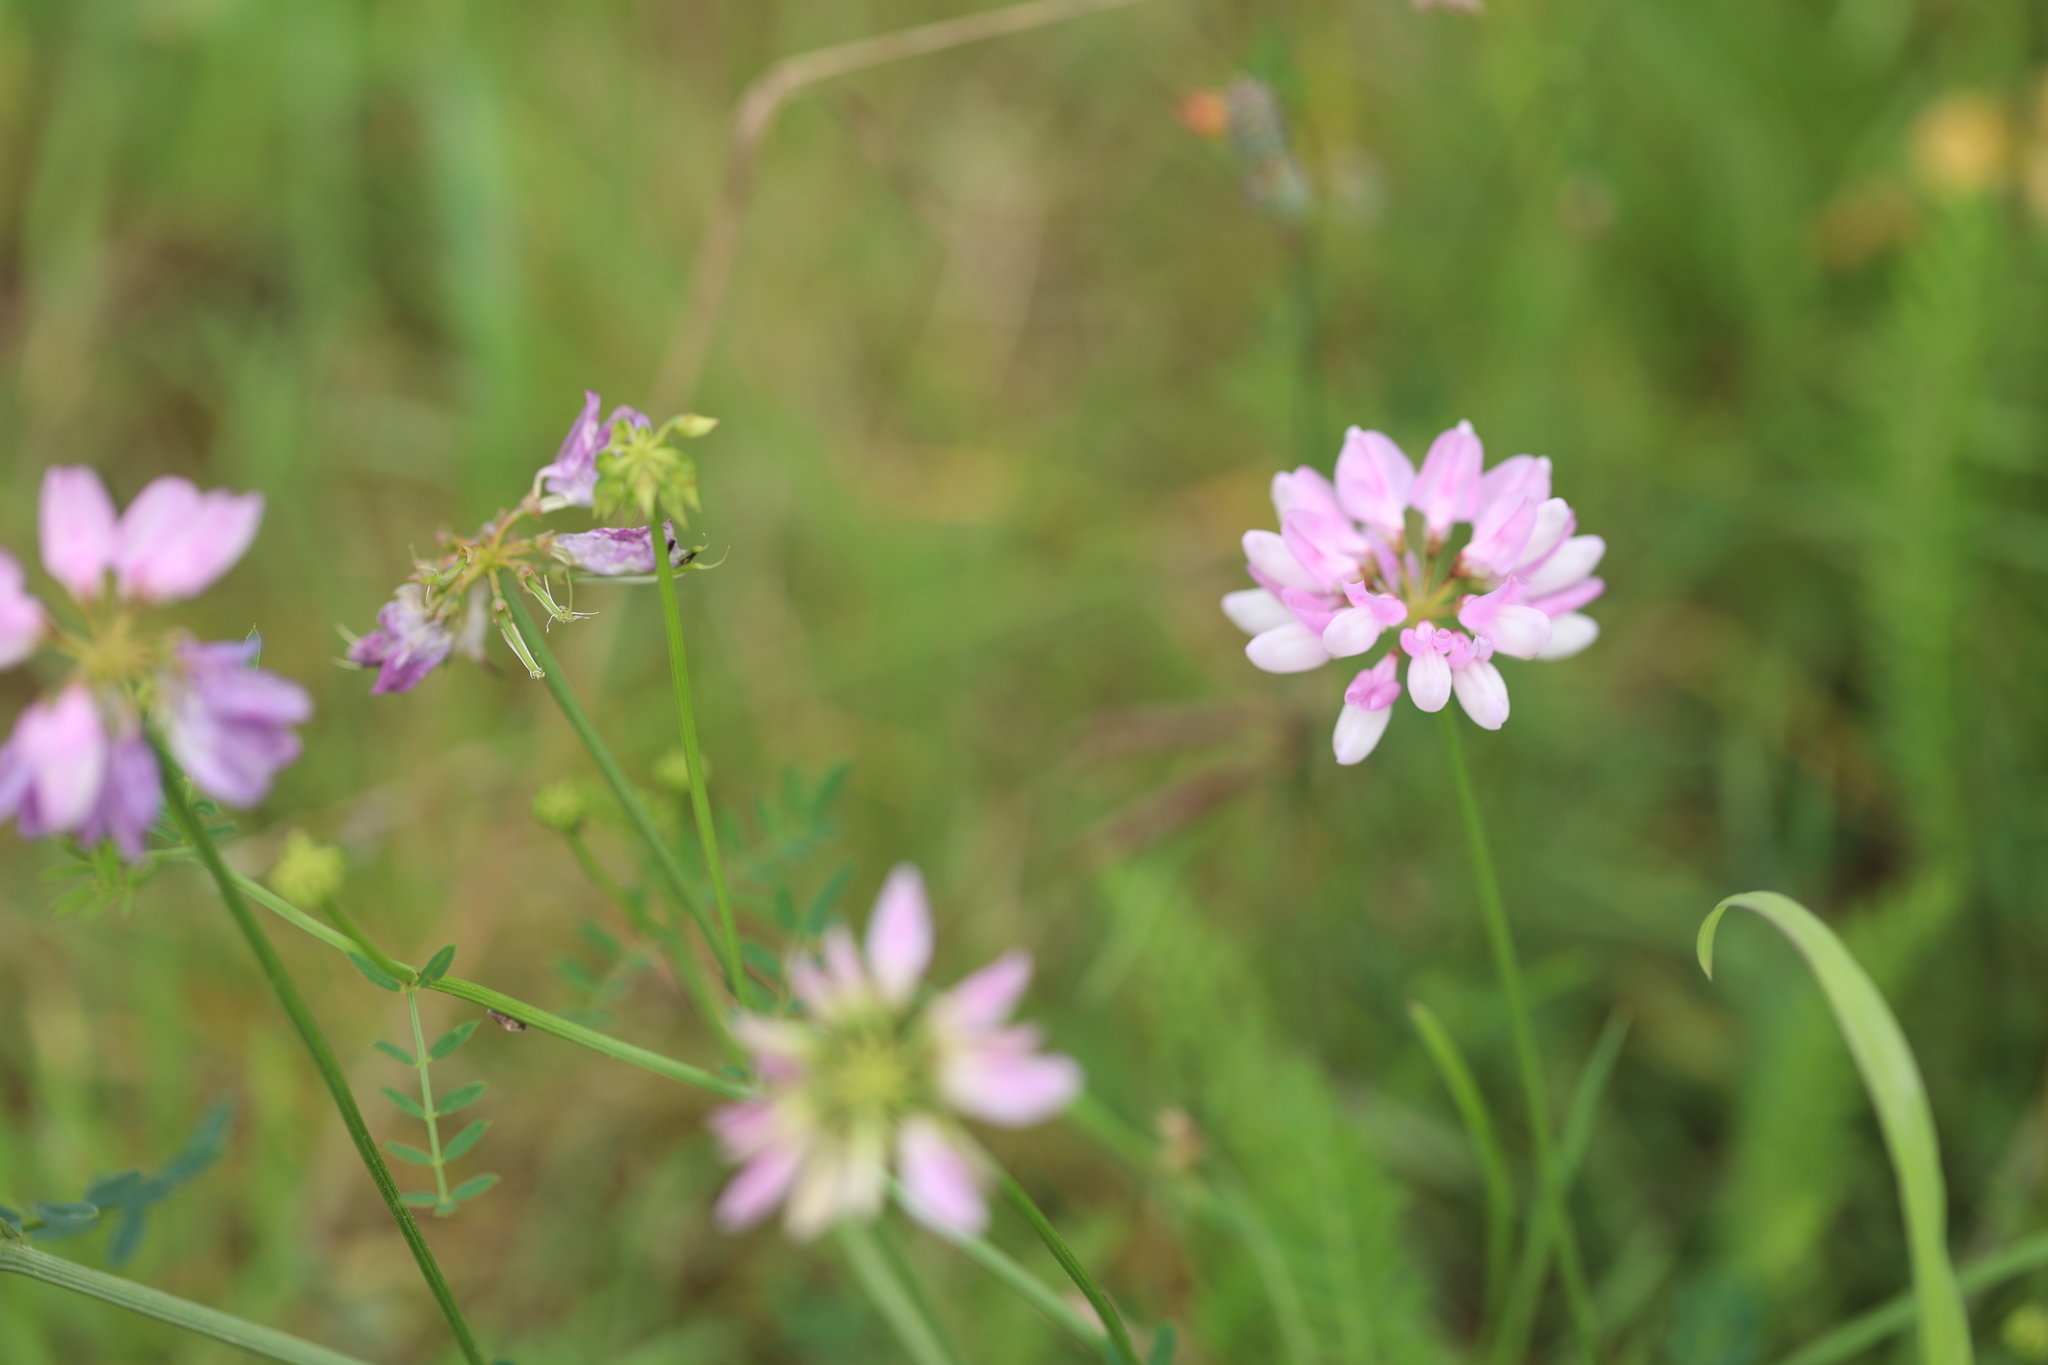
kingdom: Plantae
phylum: Tracheophyta
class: Magnoliopsida
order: Fabales
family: Fabaceae
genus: Coronilla
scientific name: Coronilla varia
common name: Crownvetch
